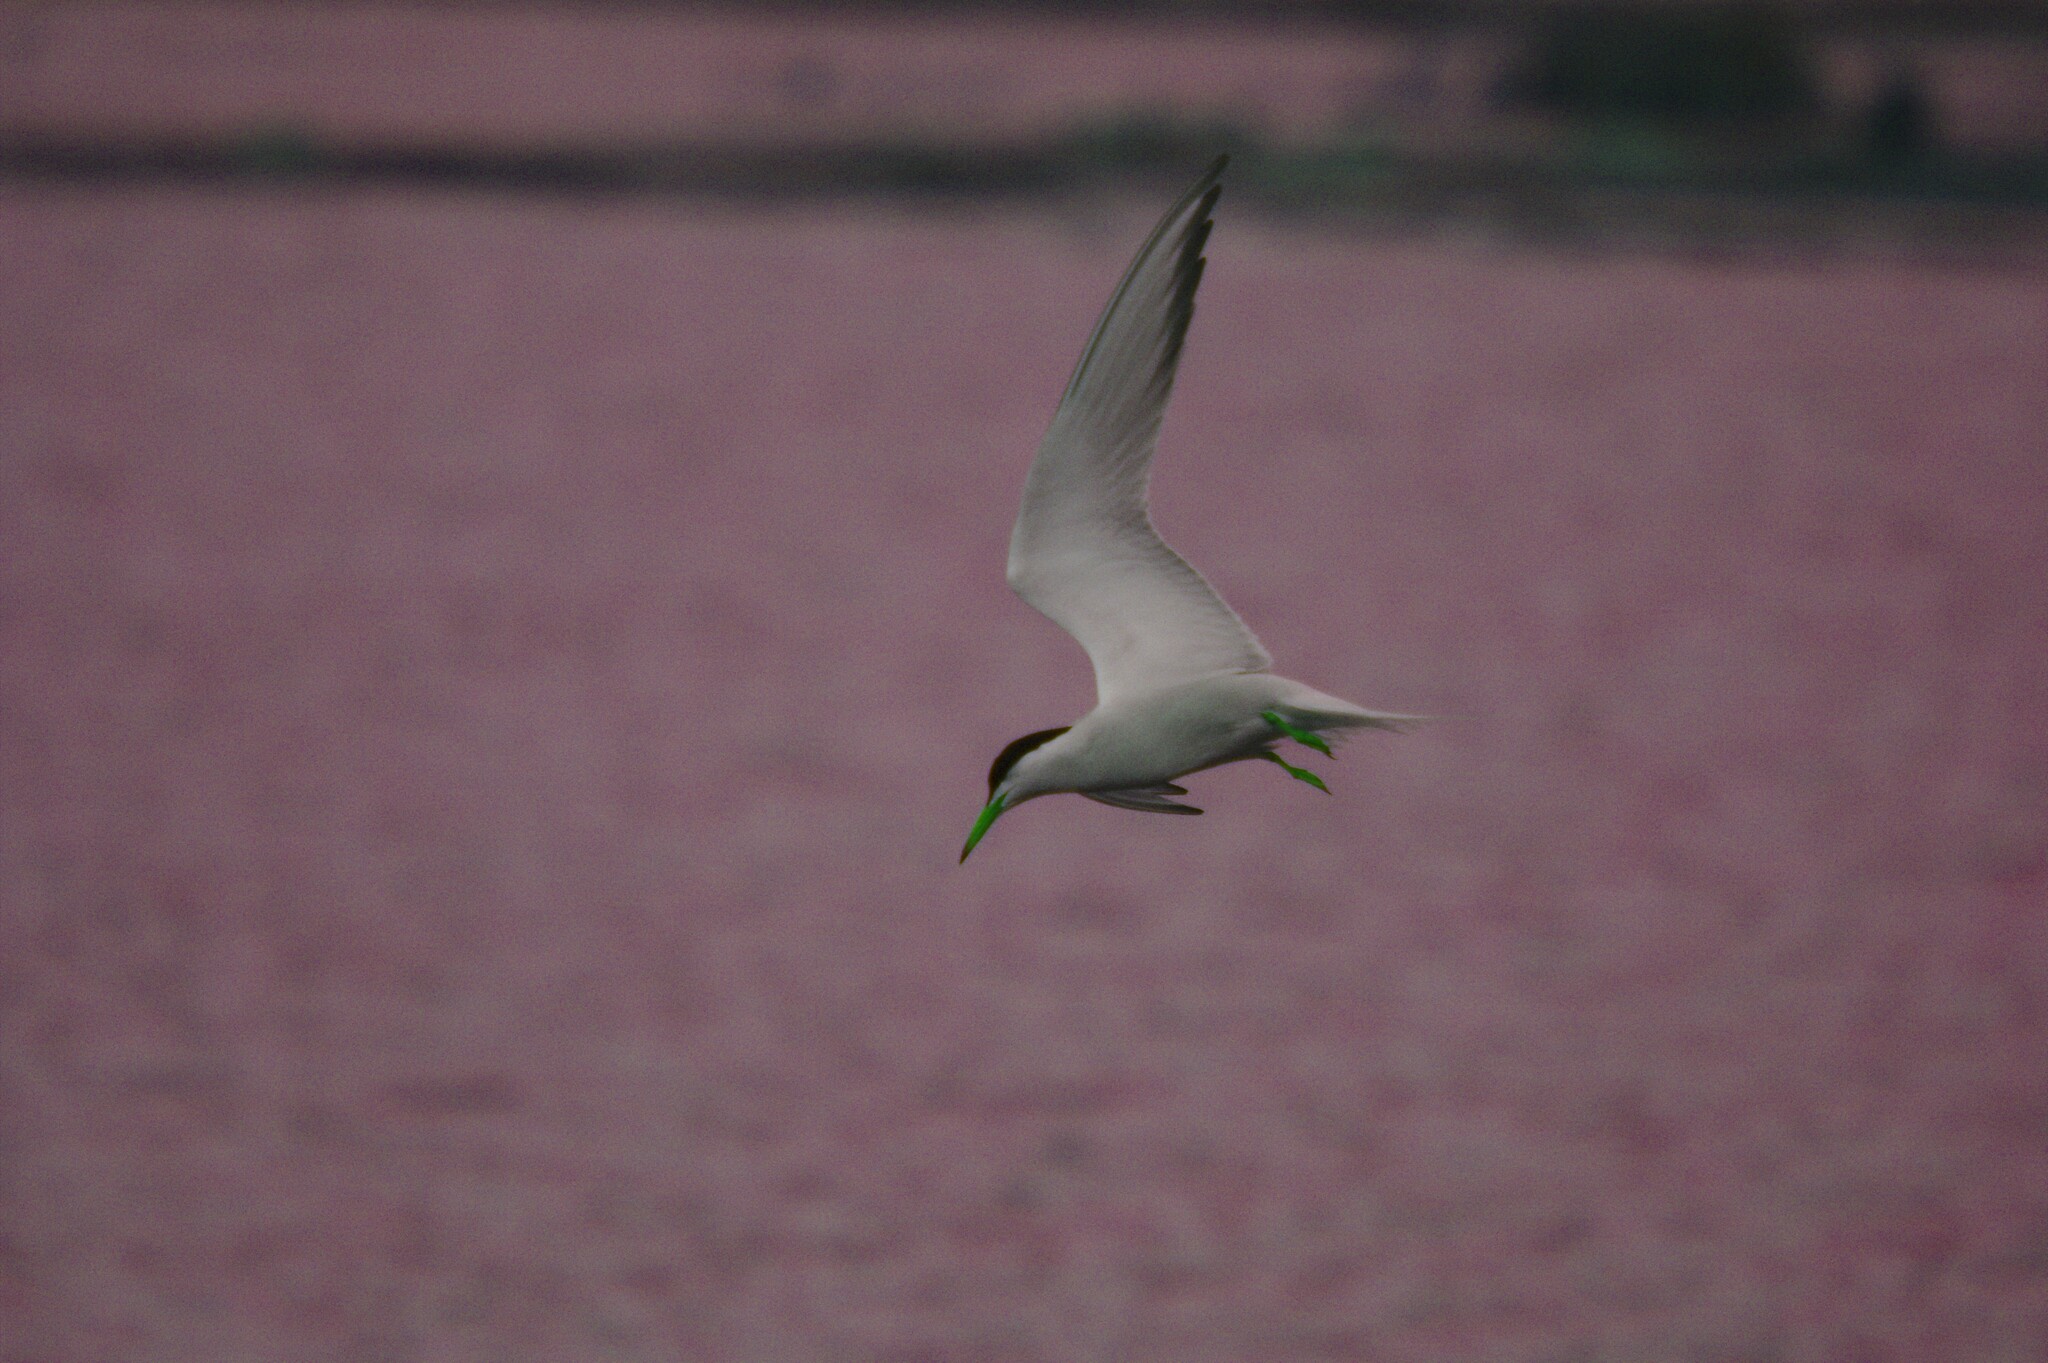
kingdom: Animalia
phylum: Chordata
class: Aves
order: Charadriiformes
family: Laridae
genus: Sterna
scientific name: Sterna hirundo
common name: Common tern
